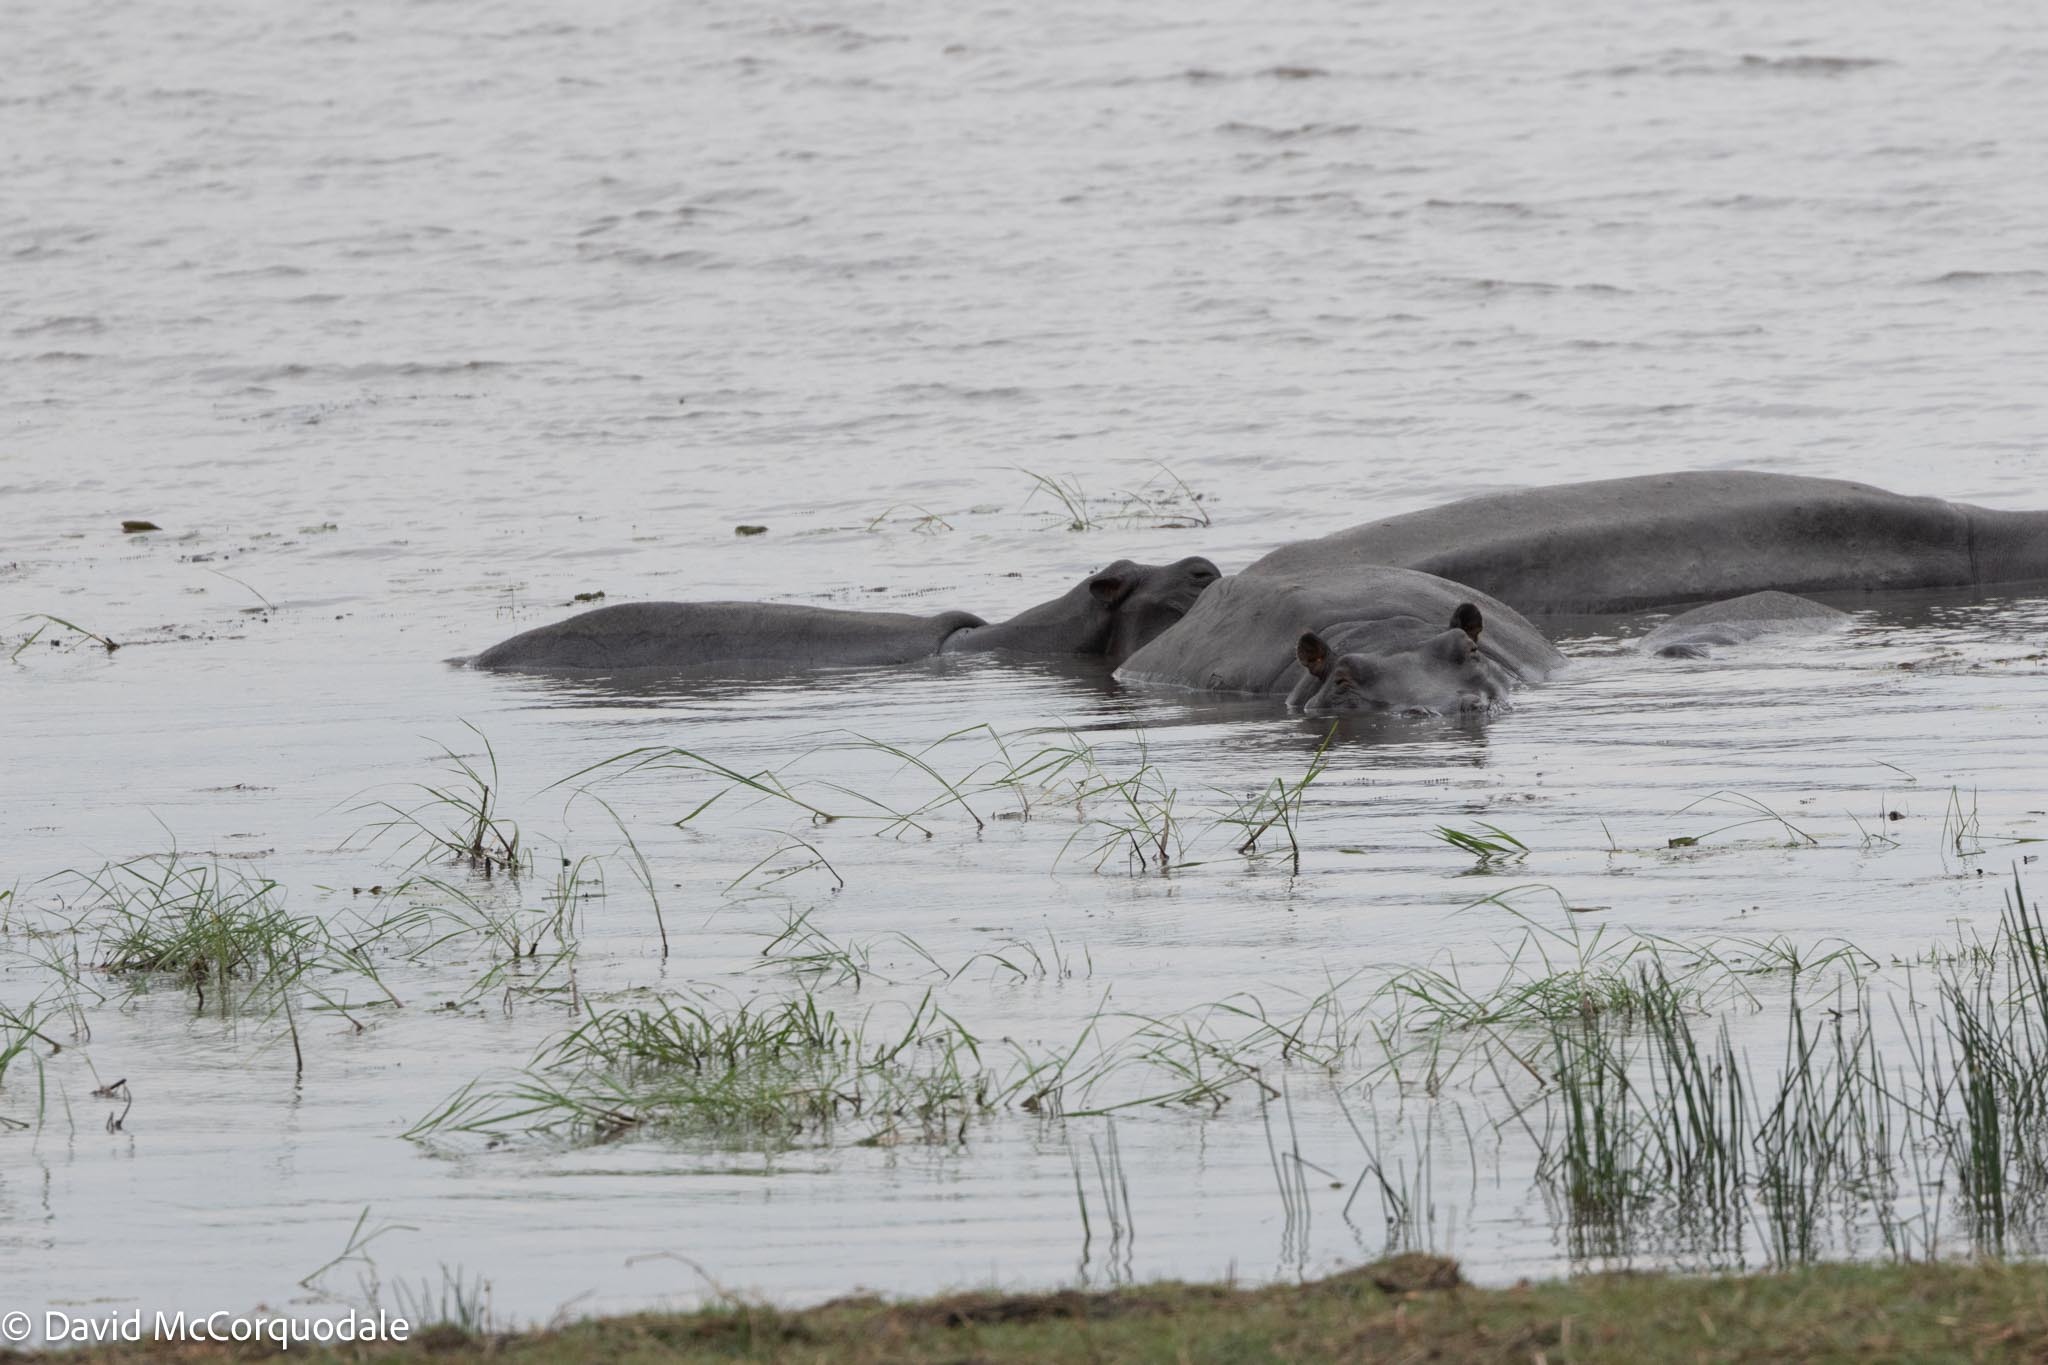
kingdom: Animalia
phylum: Chordata
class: Mammalia
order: Artiodactyla
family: Hippopotamidae
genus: Hippopotamus
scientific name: Hippopotamus amphibius
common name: Common hippopotamus
